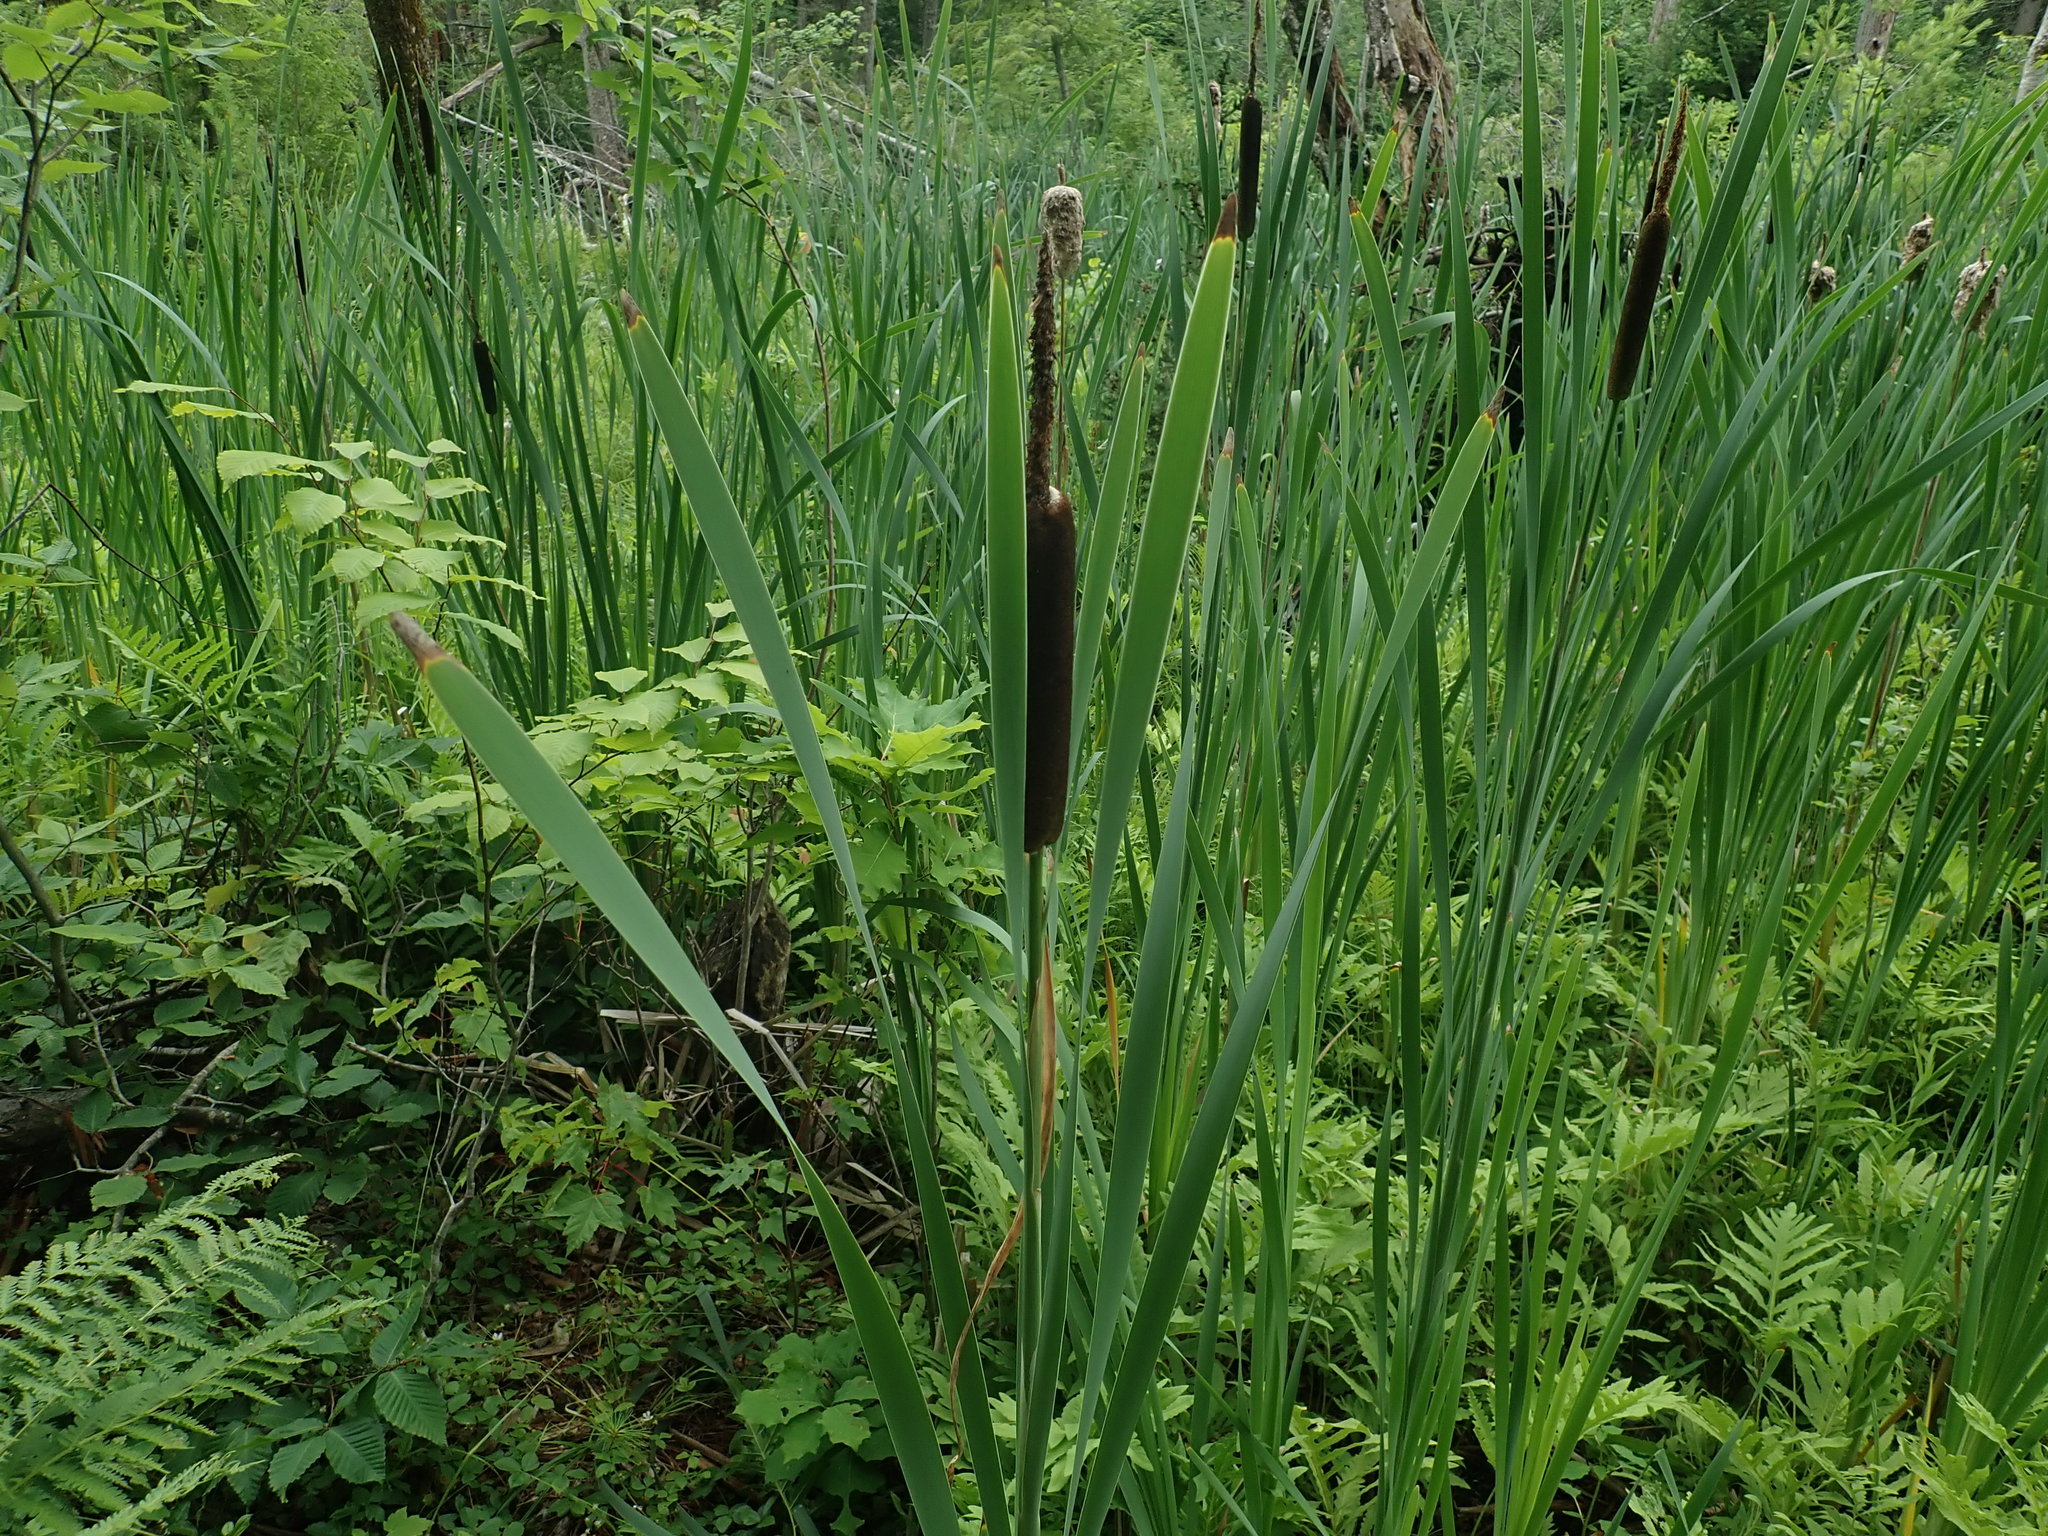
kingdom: Plantae
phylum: Tracheophyta
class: Liliopsida
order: Poales
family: Typhaceae
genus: Typha
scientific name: Typha latifolia
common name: Broadleaf cattail
